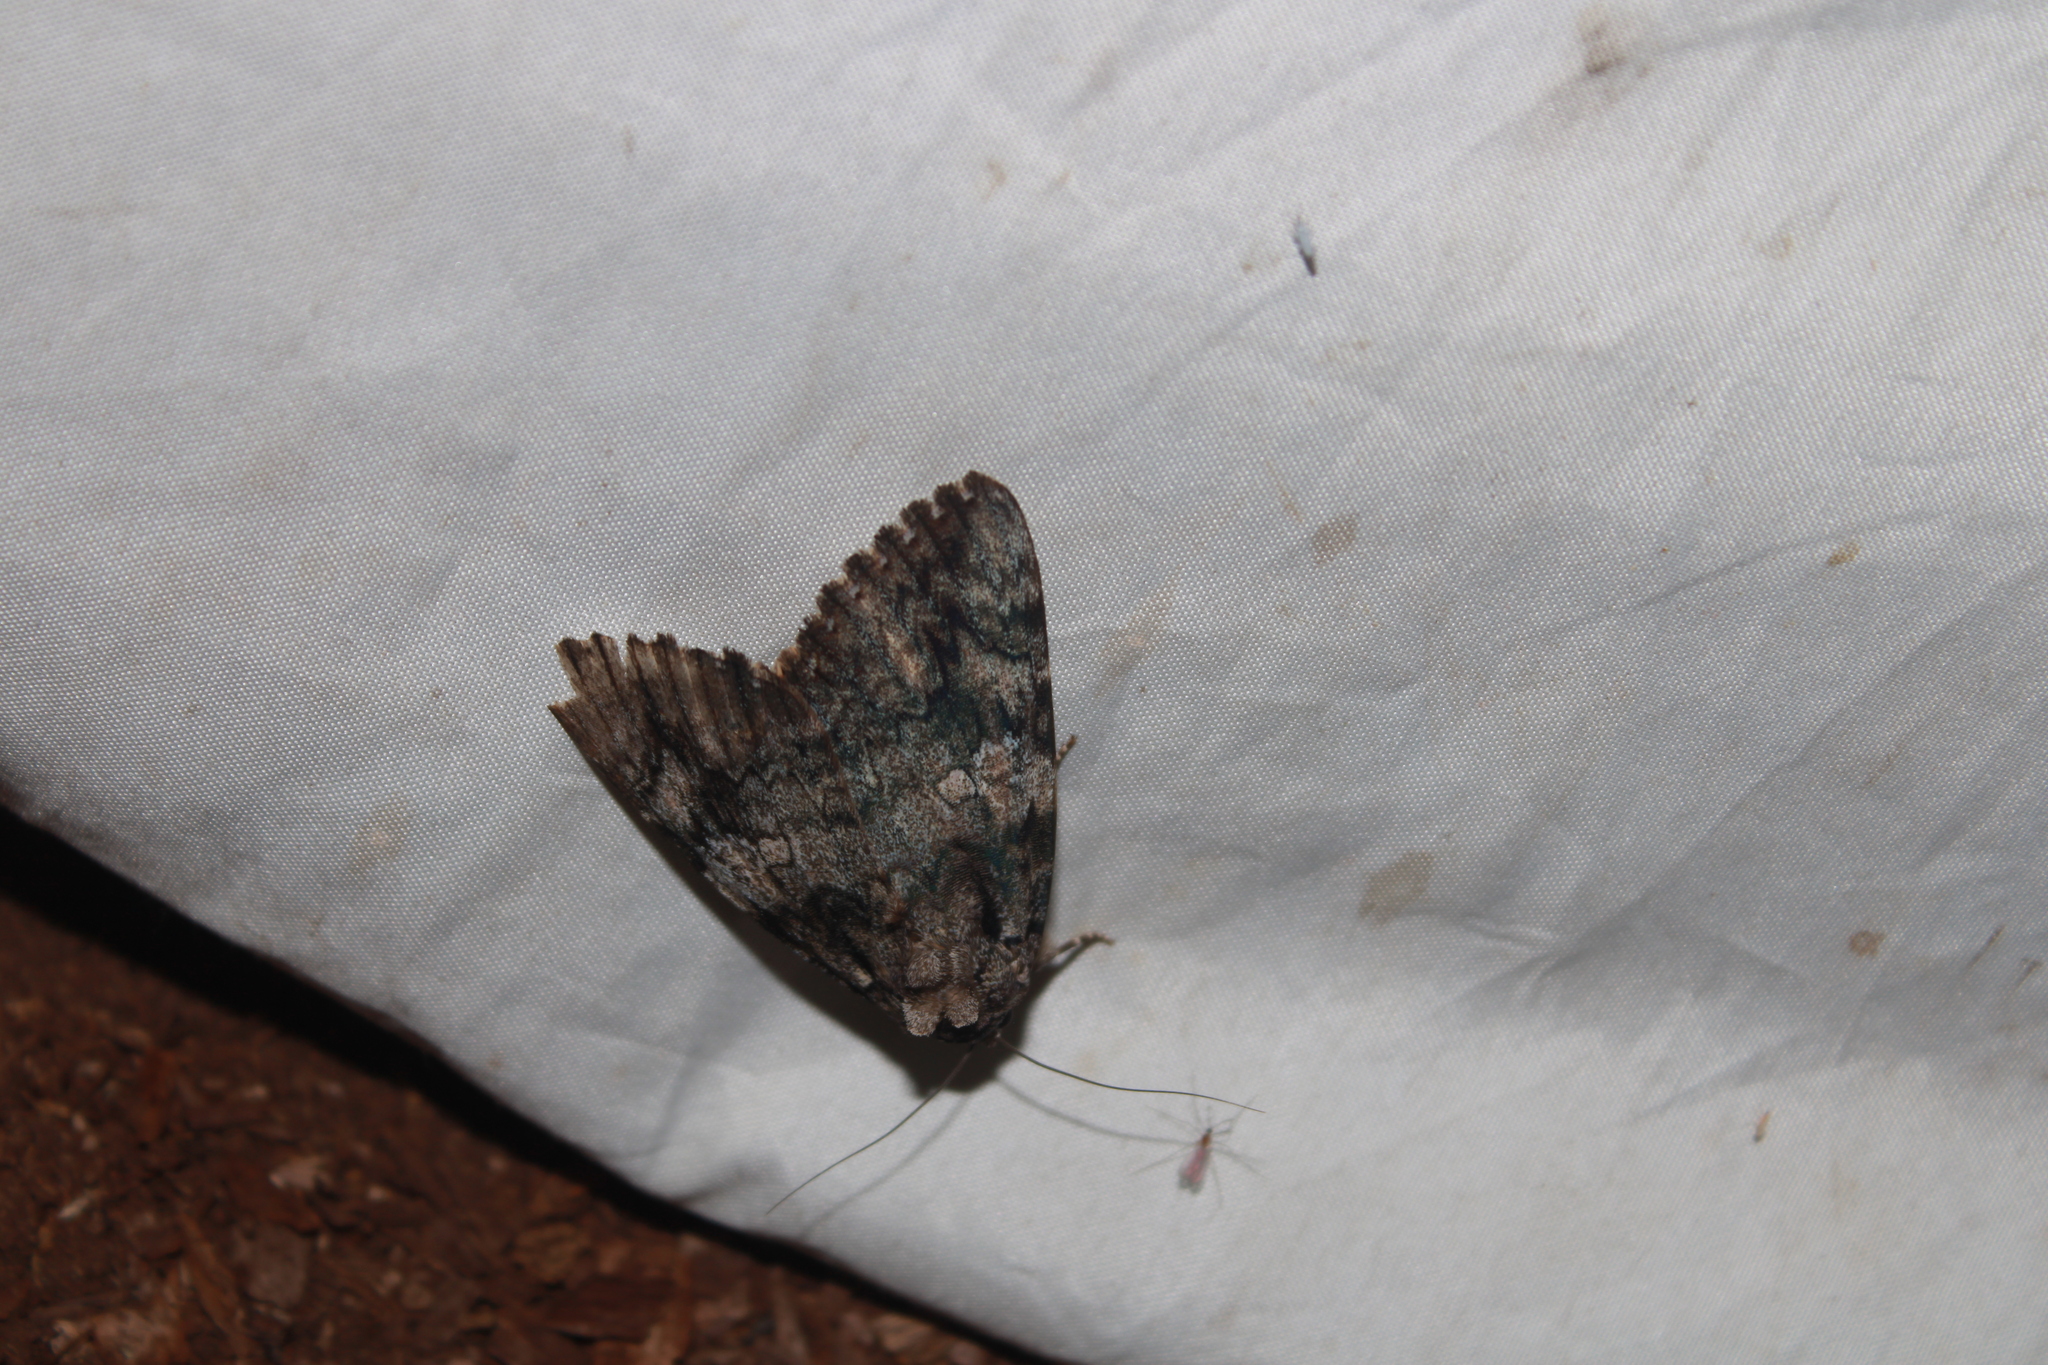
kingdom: Animalia
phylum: Arthropoda
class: Insecta
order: Lepidoptera
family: Erebidae
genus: Catocala
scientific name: Catocala ilia
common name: Ilia underwing
